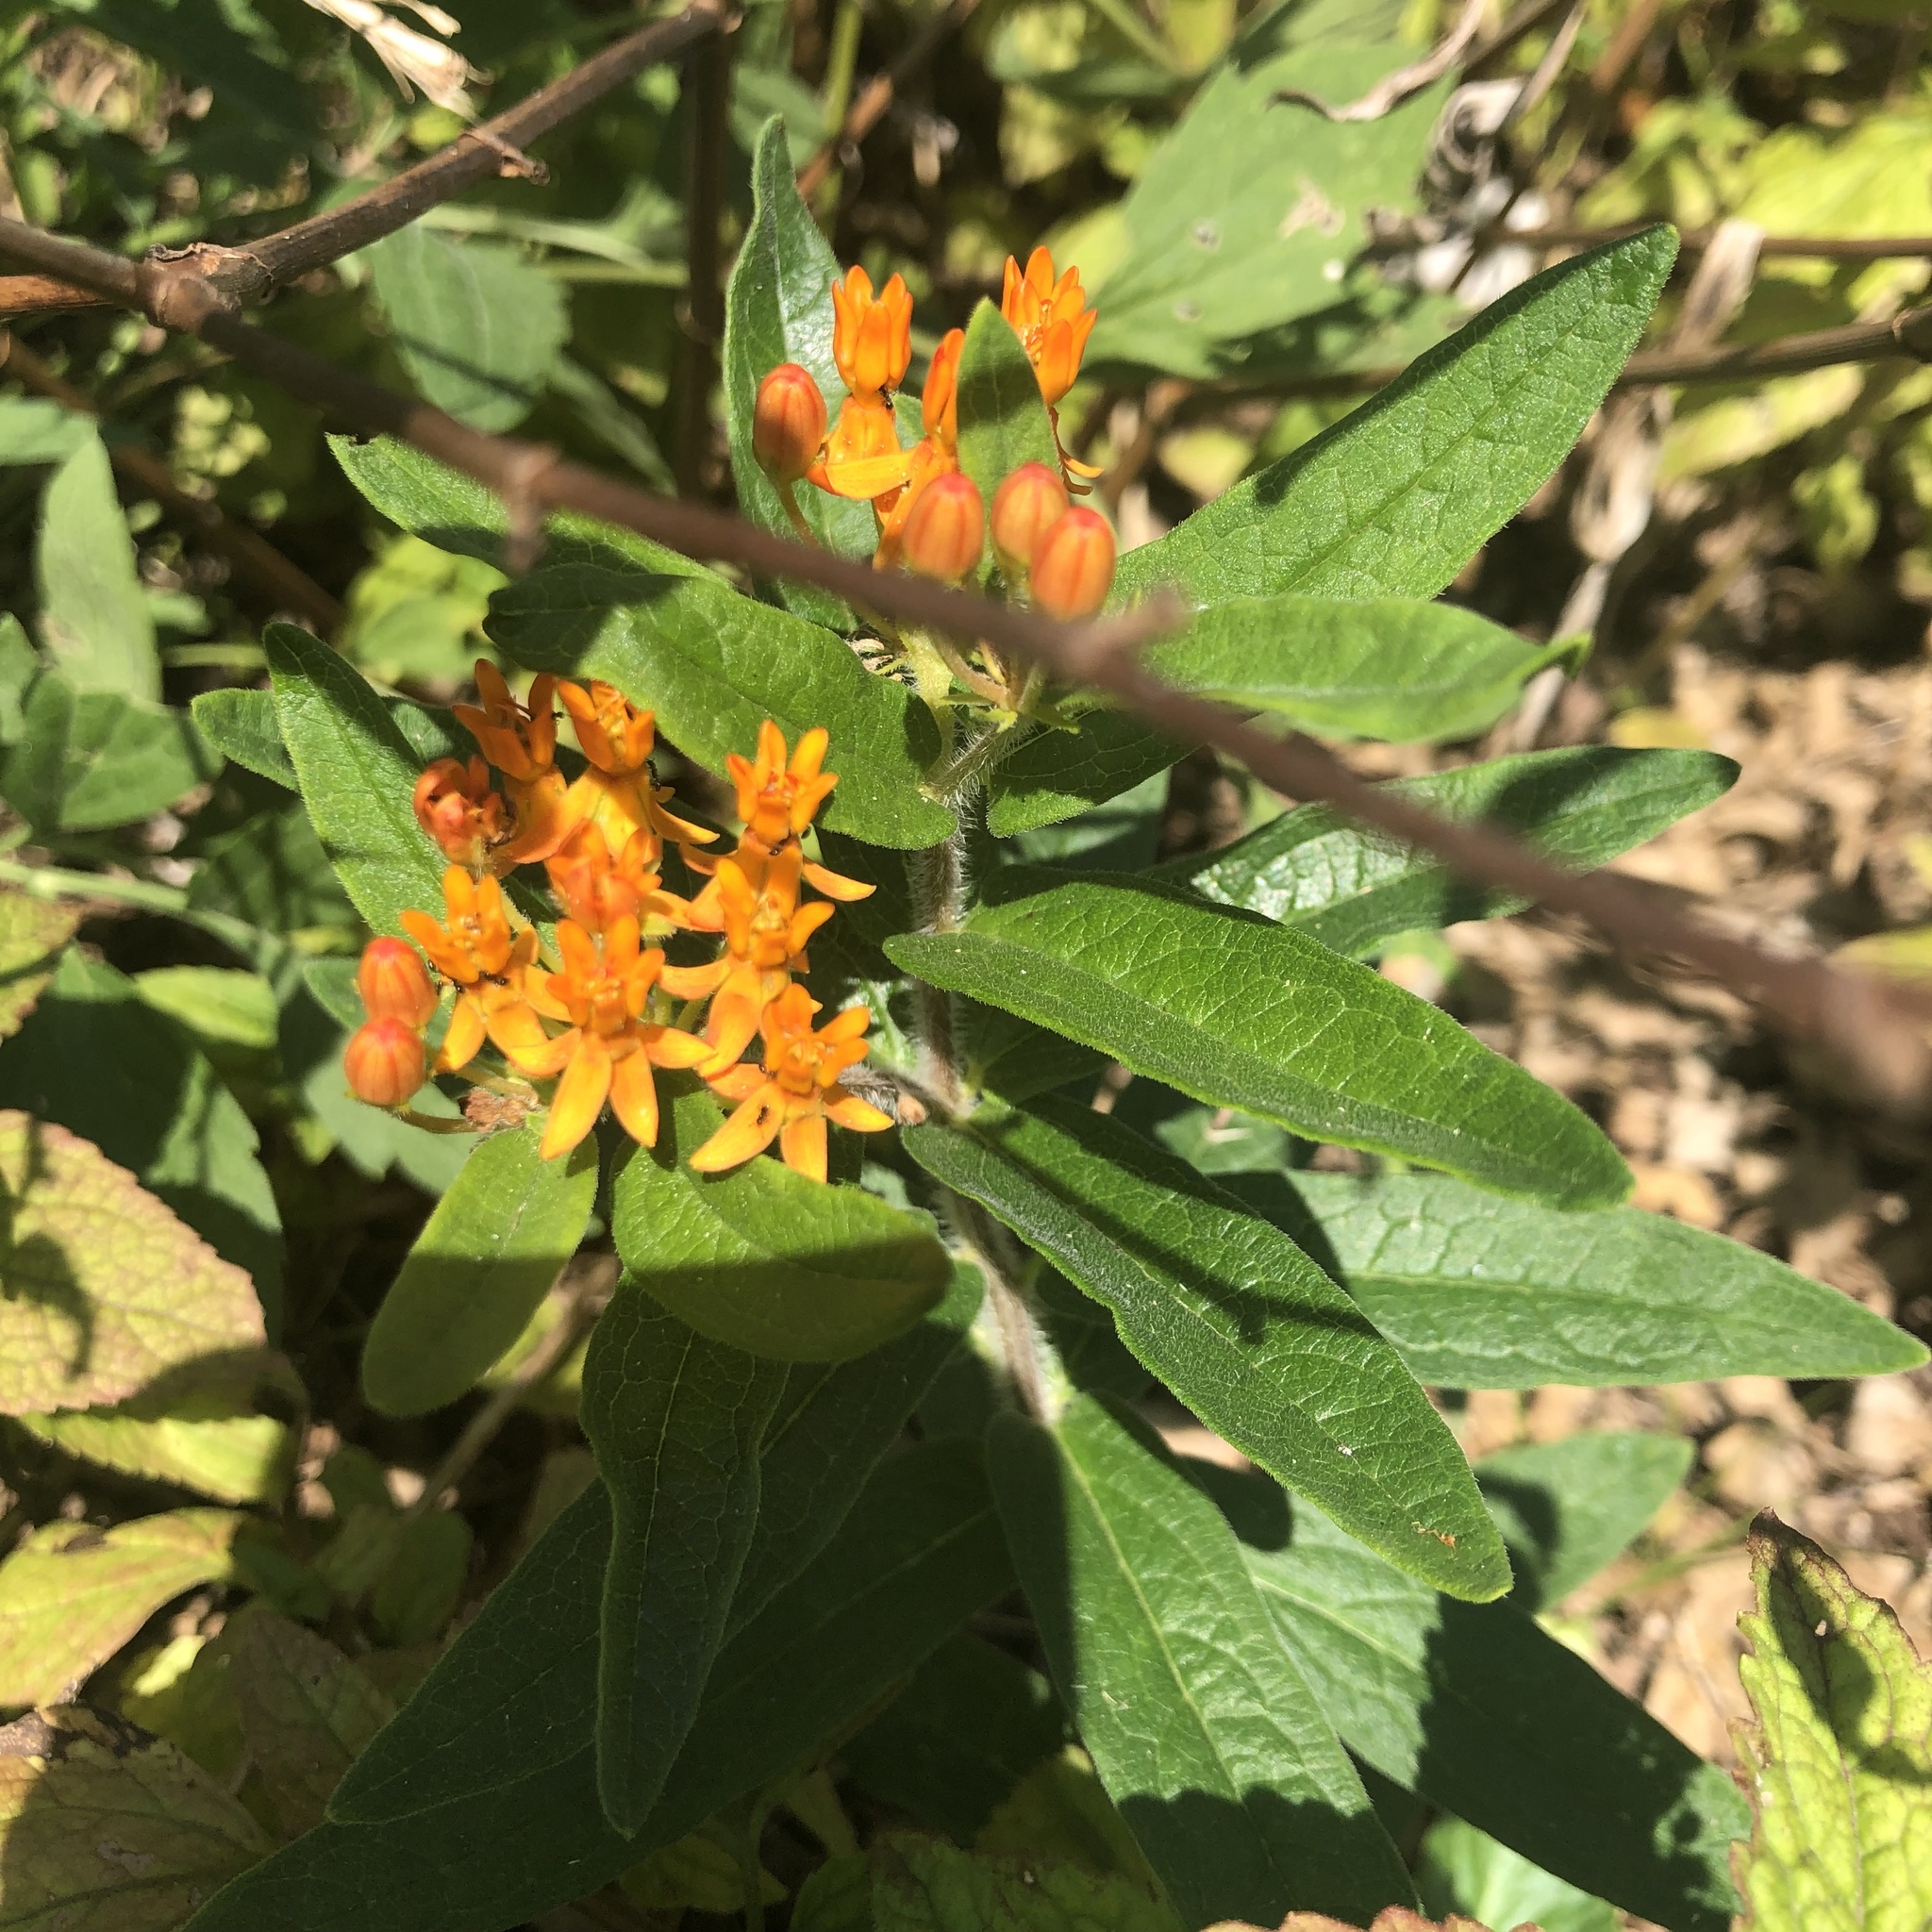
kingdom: Plantae
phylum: Tracheophyta
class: Magnoliopsida
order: Gentianales
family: Apocynaceae
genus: Asclepias
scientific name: Asclepias tuberosa
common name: Butterfly milkweed
